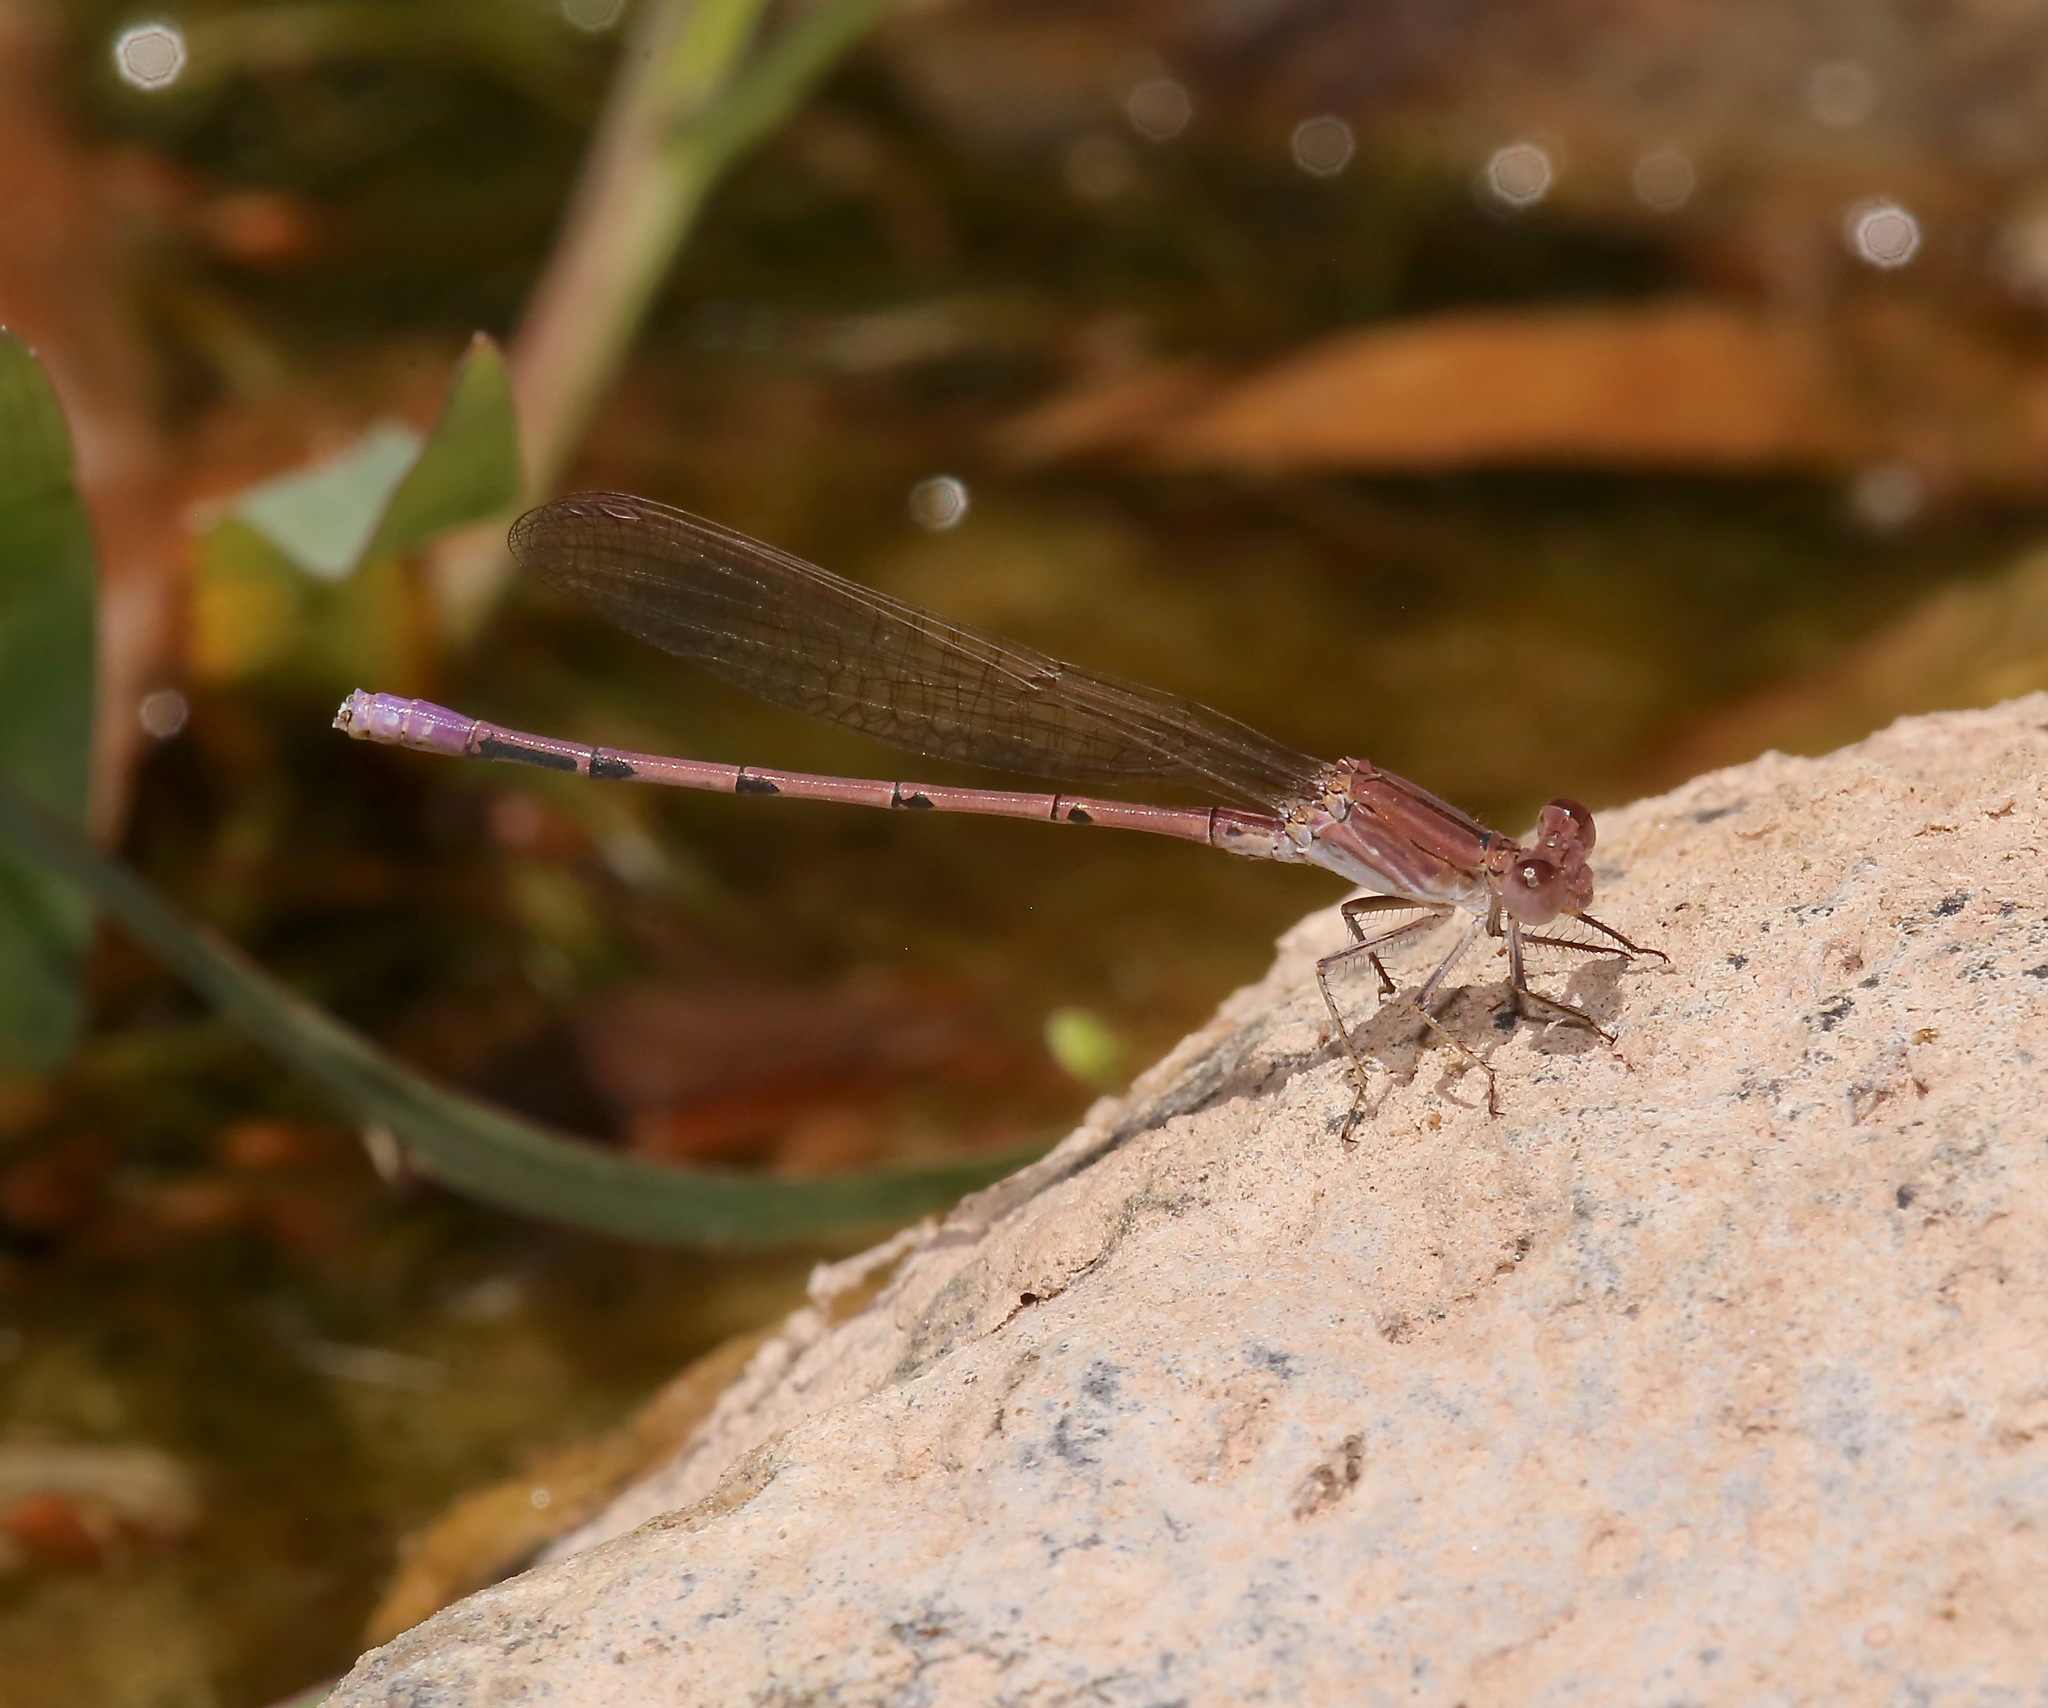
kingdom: Animalia
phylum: Arthropoda
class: Insecta
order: Odonata
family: Coenagrionidae
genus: Argia
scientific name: Argia pallens
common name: Amethyst dancer
